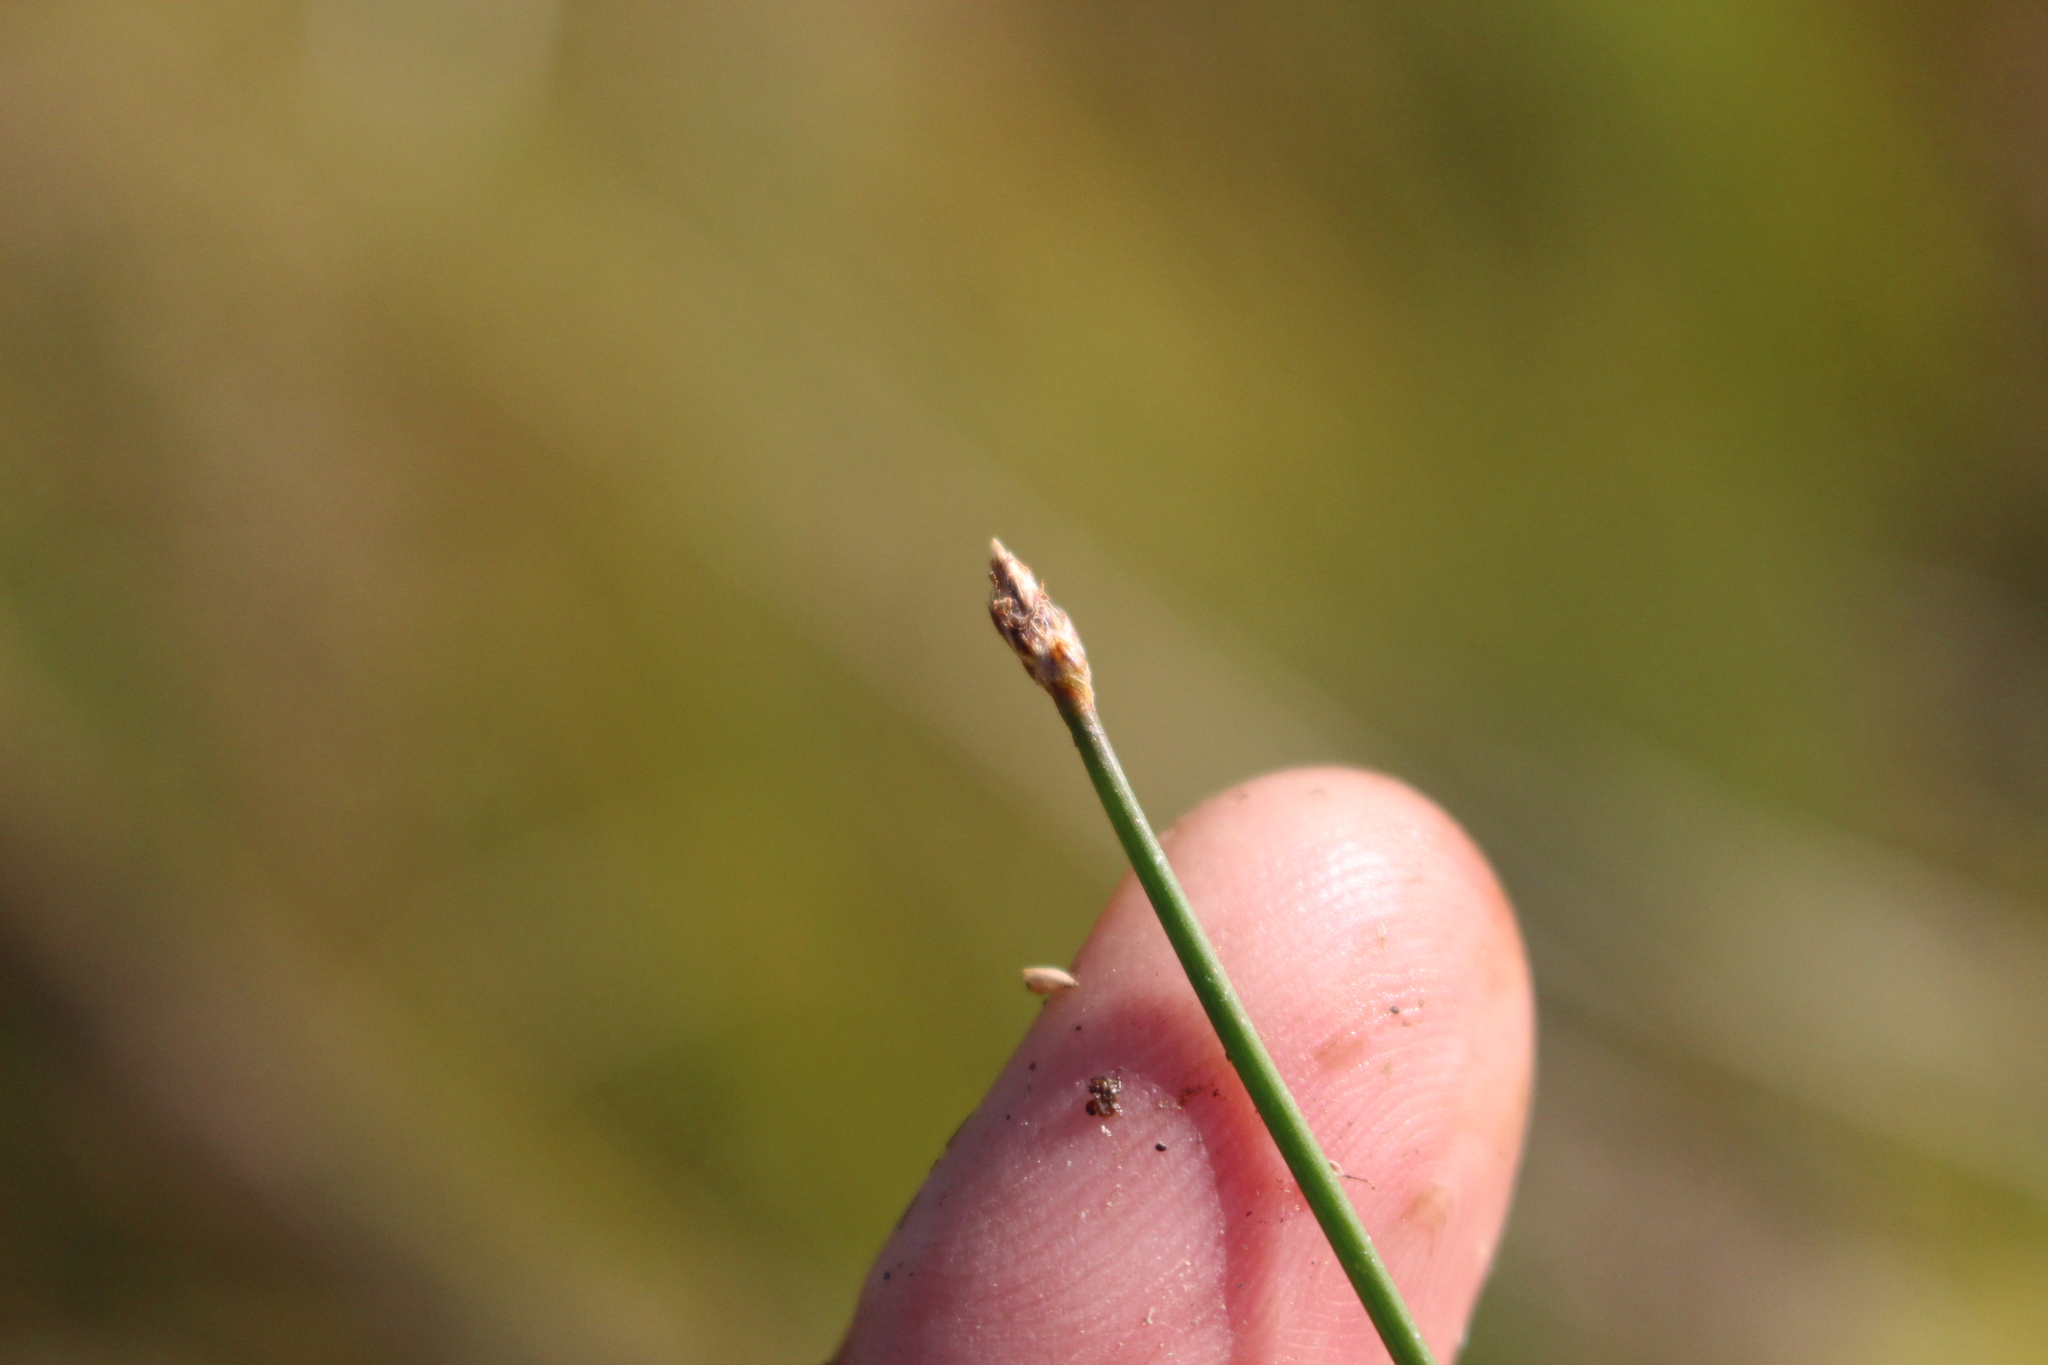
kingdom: Plantae
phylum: Tracheophyta
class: Liliopsida
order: Poales
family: Cyperaceae
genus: Eleocharis
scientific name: Eleocharis acuta
